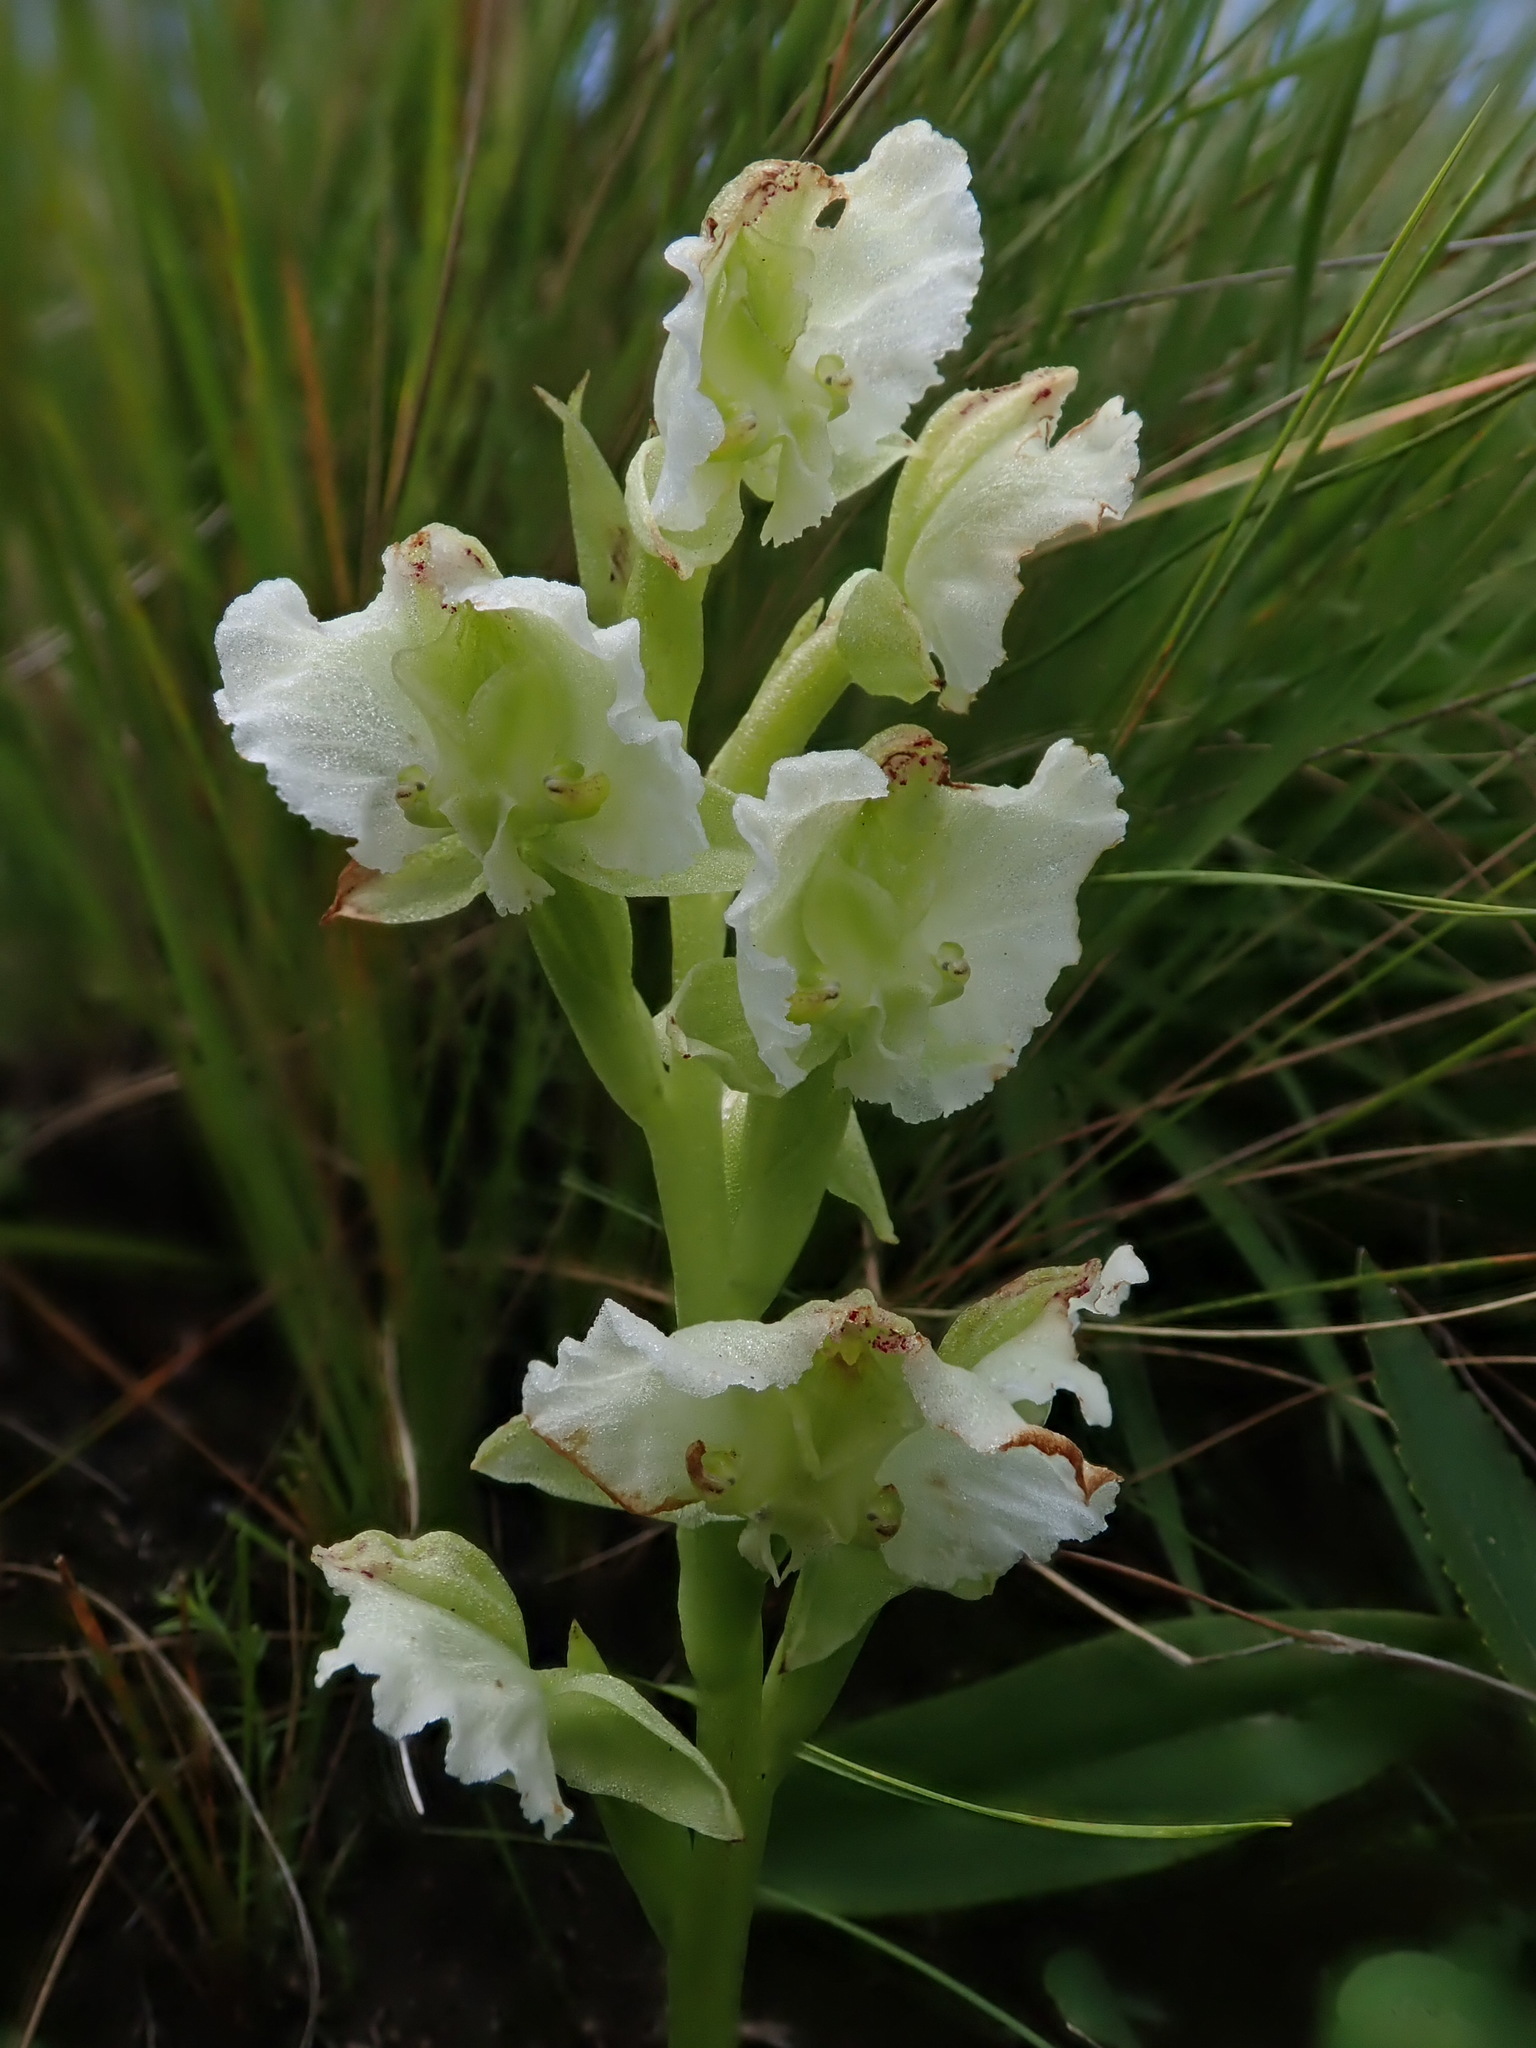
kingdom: Plantae
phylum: Tracheophyta
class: Liliopsida
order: Asparagales
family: Orchidaceae
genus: Pterygodium
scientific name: Pterygodium hastatum
